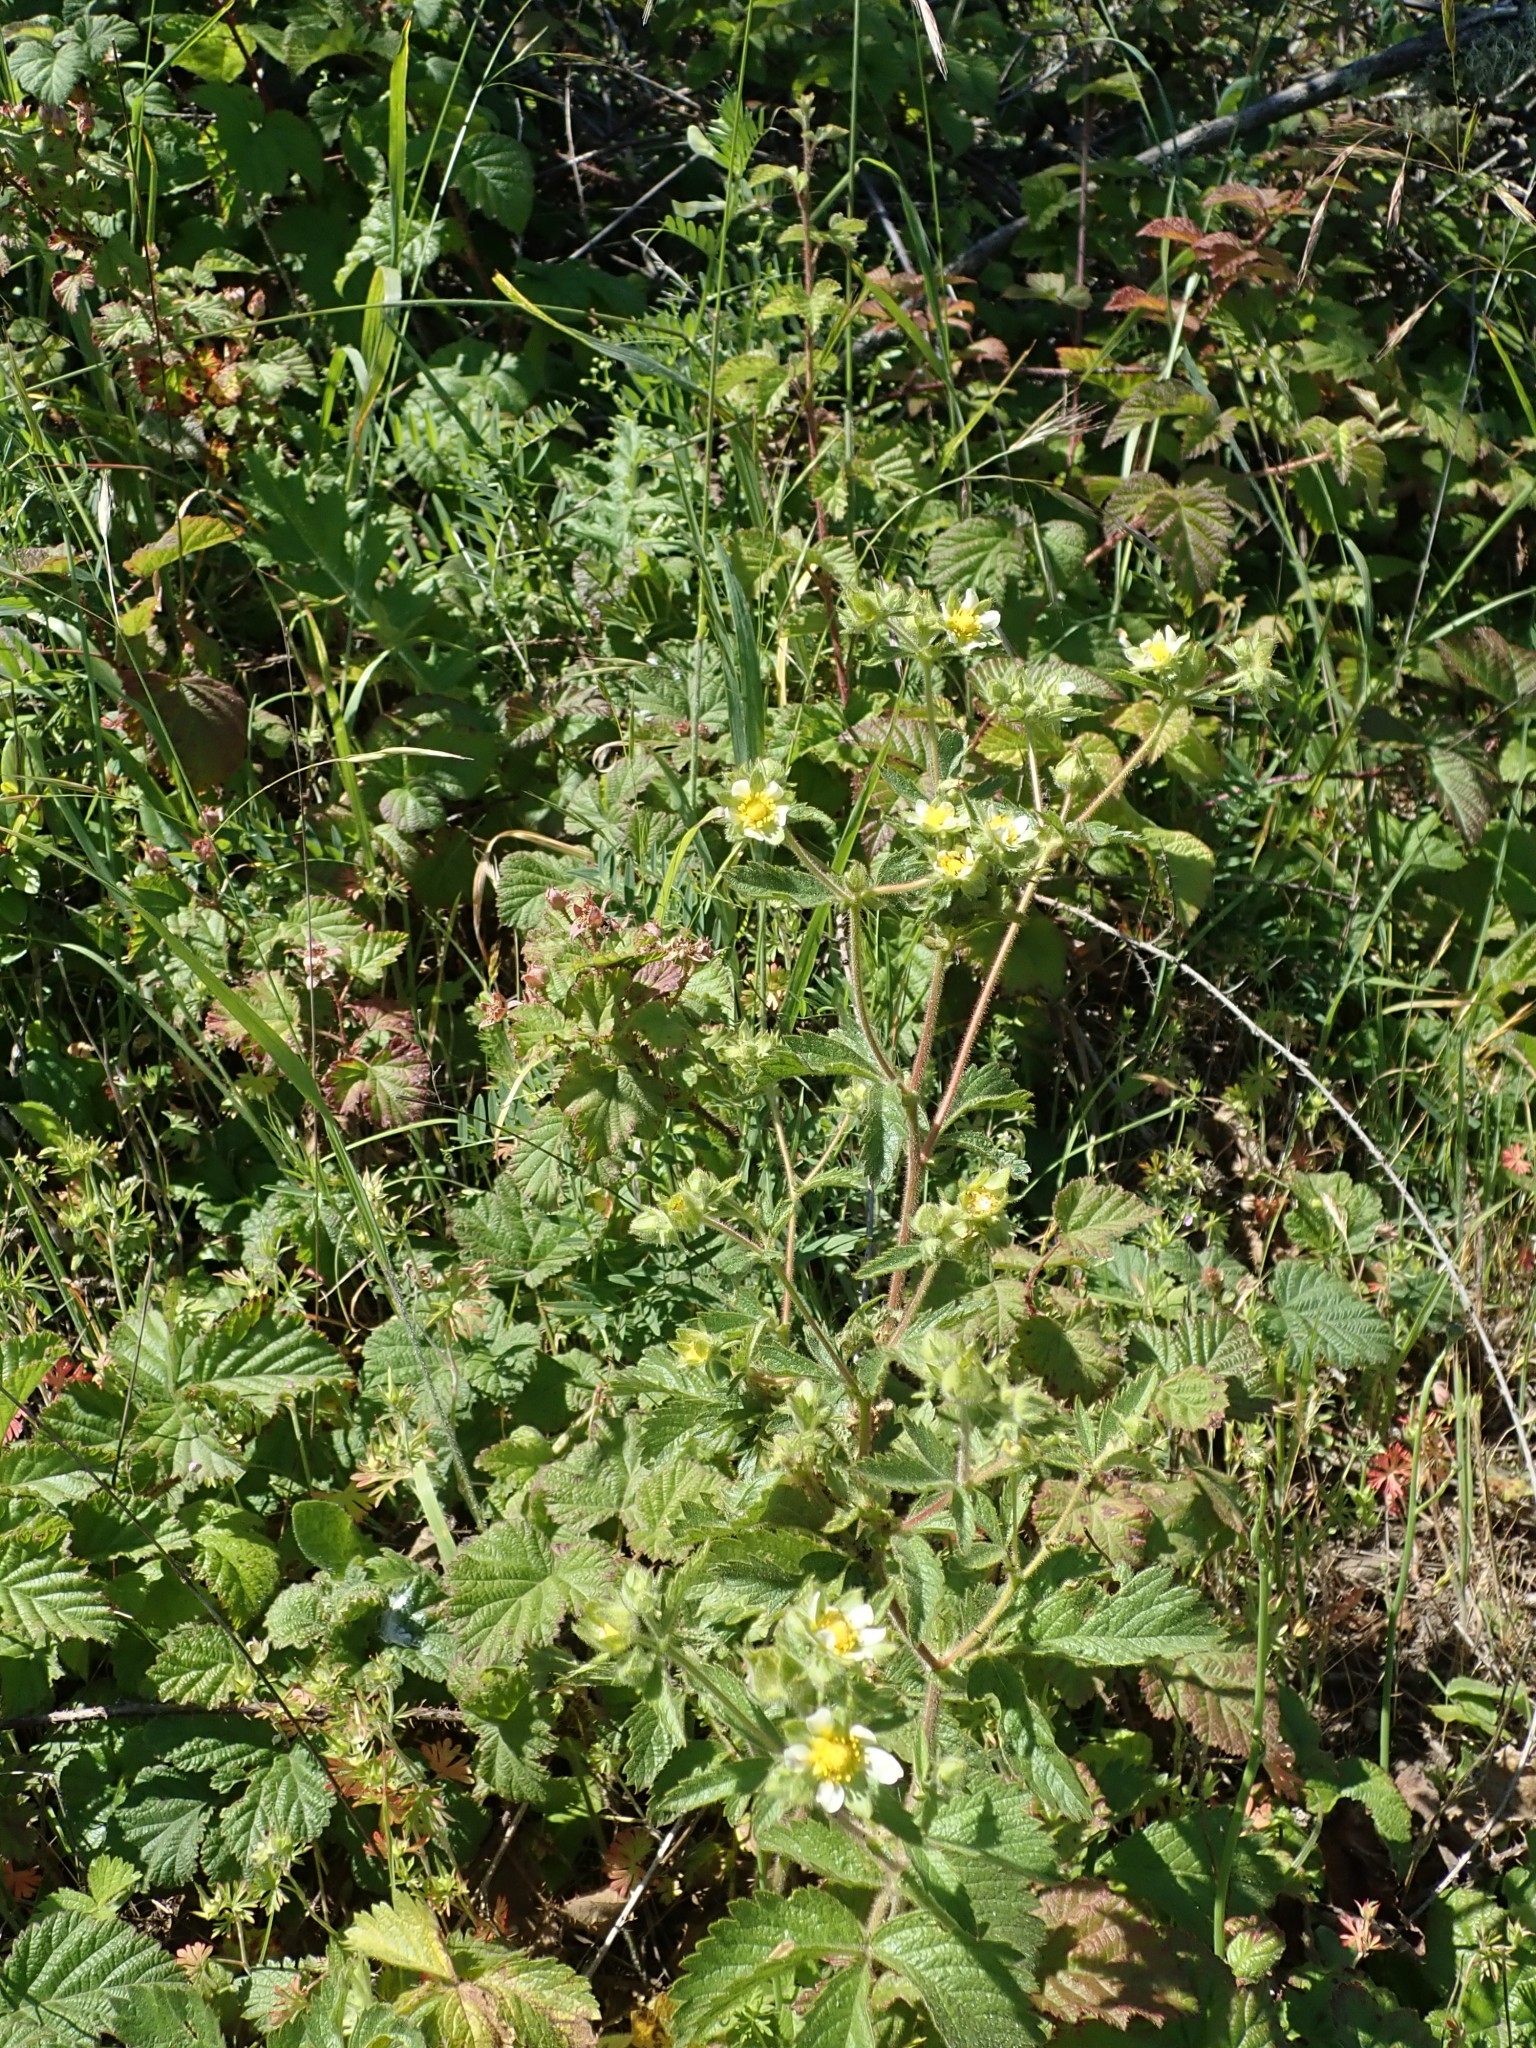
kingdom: Plantae
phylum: Tracheophyta
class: Magnoliopsida
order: Rosales
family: Rosaceae
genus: Drymocallis
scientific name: Drymocallis glandulosa
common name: Sticky cinquefoil
